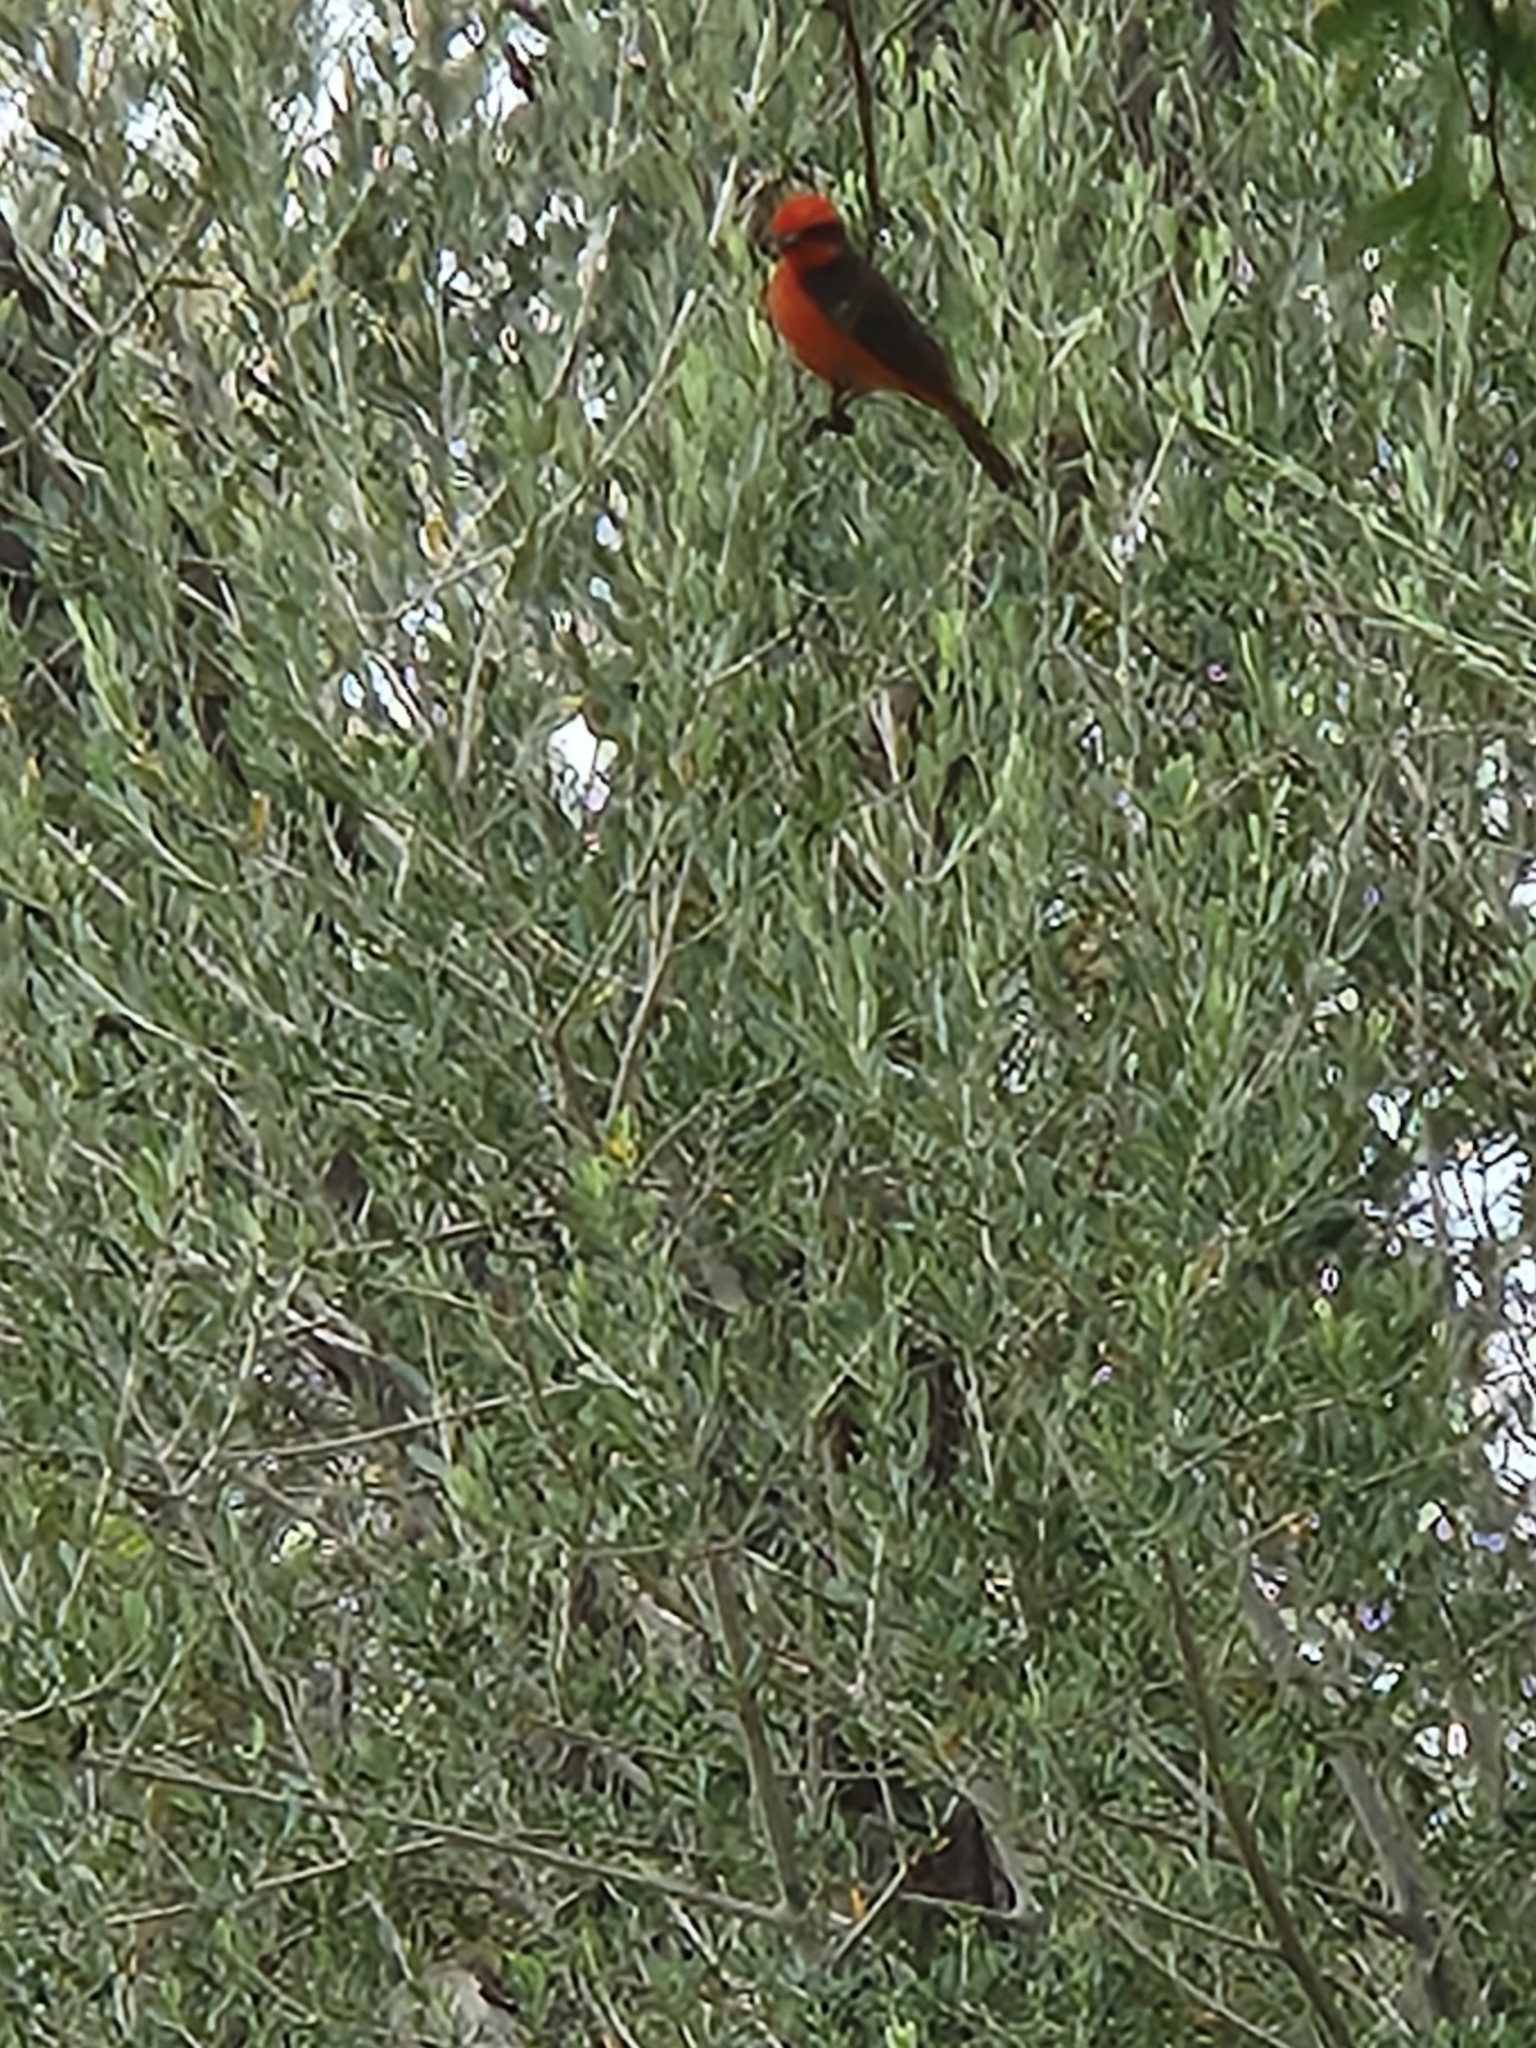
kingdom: Animalia
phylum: Chordata
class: Aves
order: Passeriformes
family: Tyrannidae
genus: Pyrocephalus
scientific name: Pyrocephalus rubinus
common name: Vermilion flycatcher
